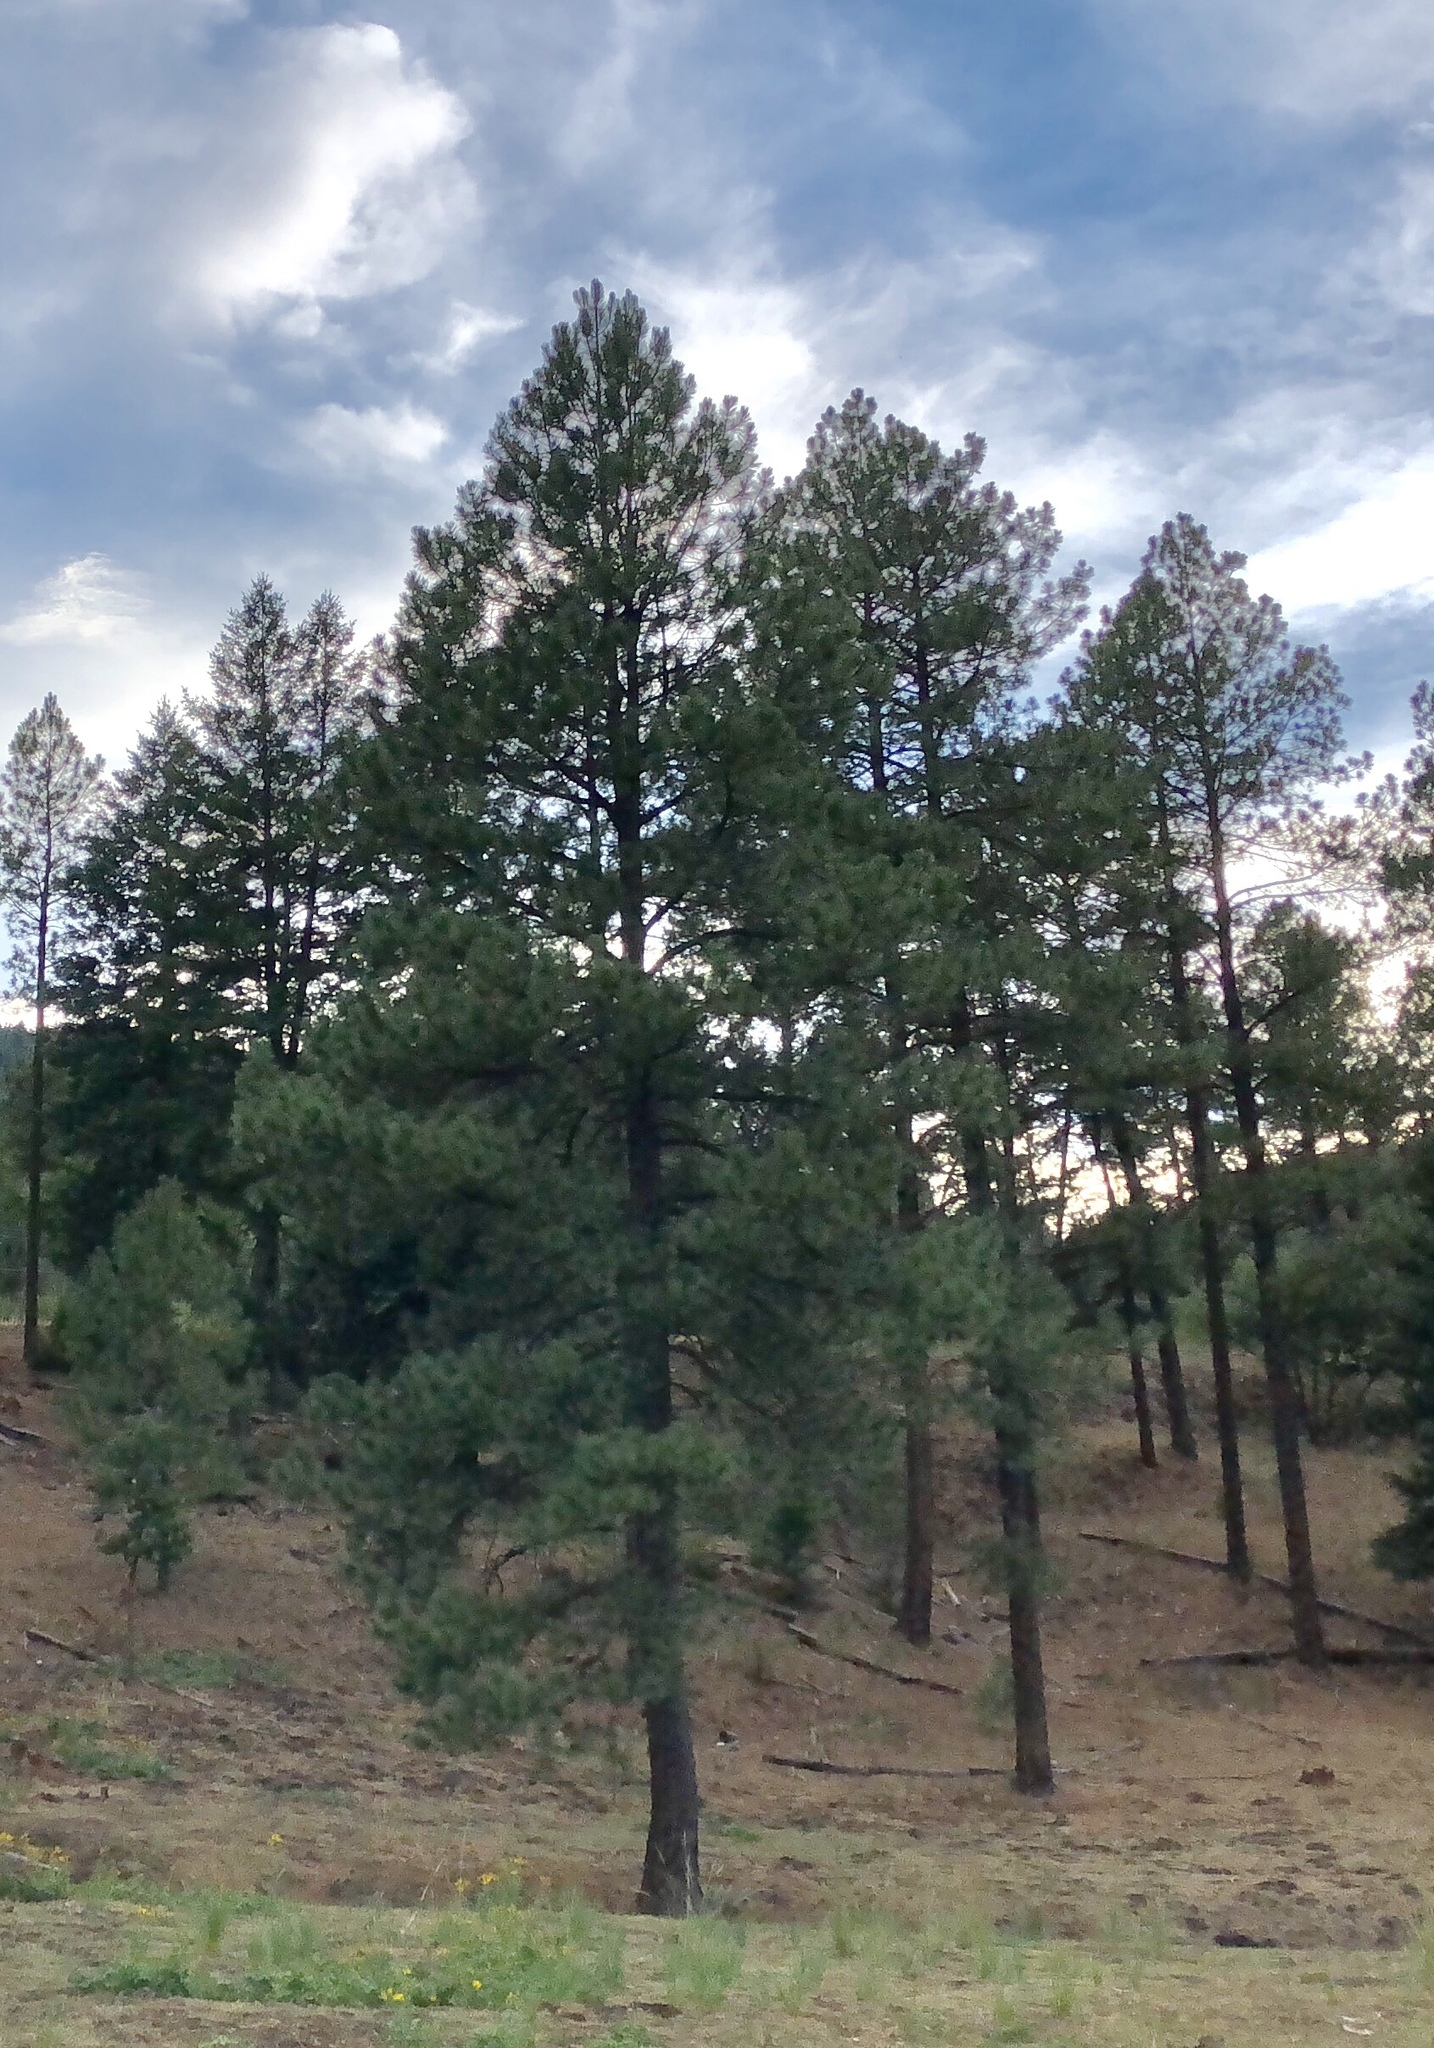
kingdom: Plantae
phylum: Tracheophyta
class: Pinopsida
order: Pinales
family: Pinaceae
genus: Pinus
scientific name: Pinus ponderosa
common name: Western yellow-pine
